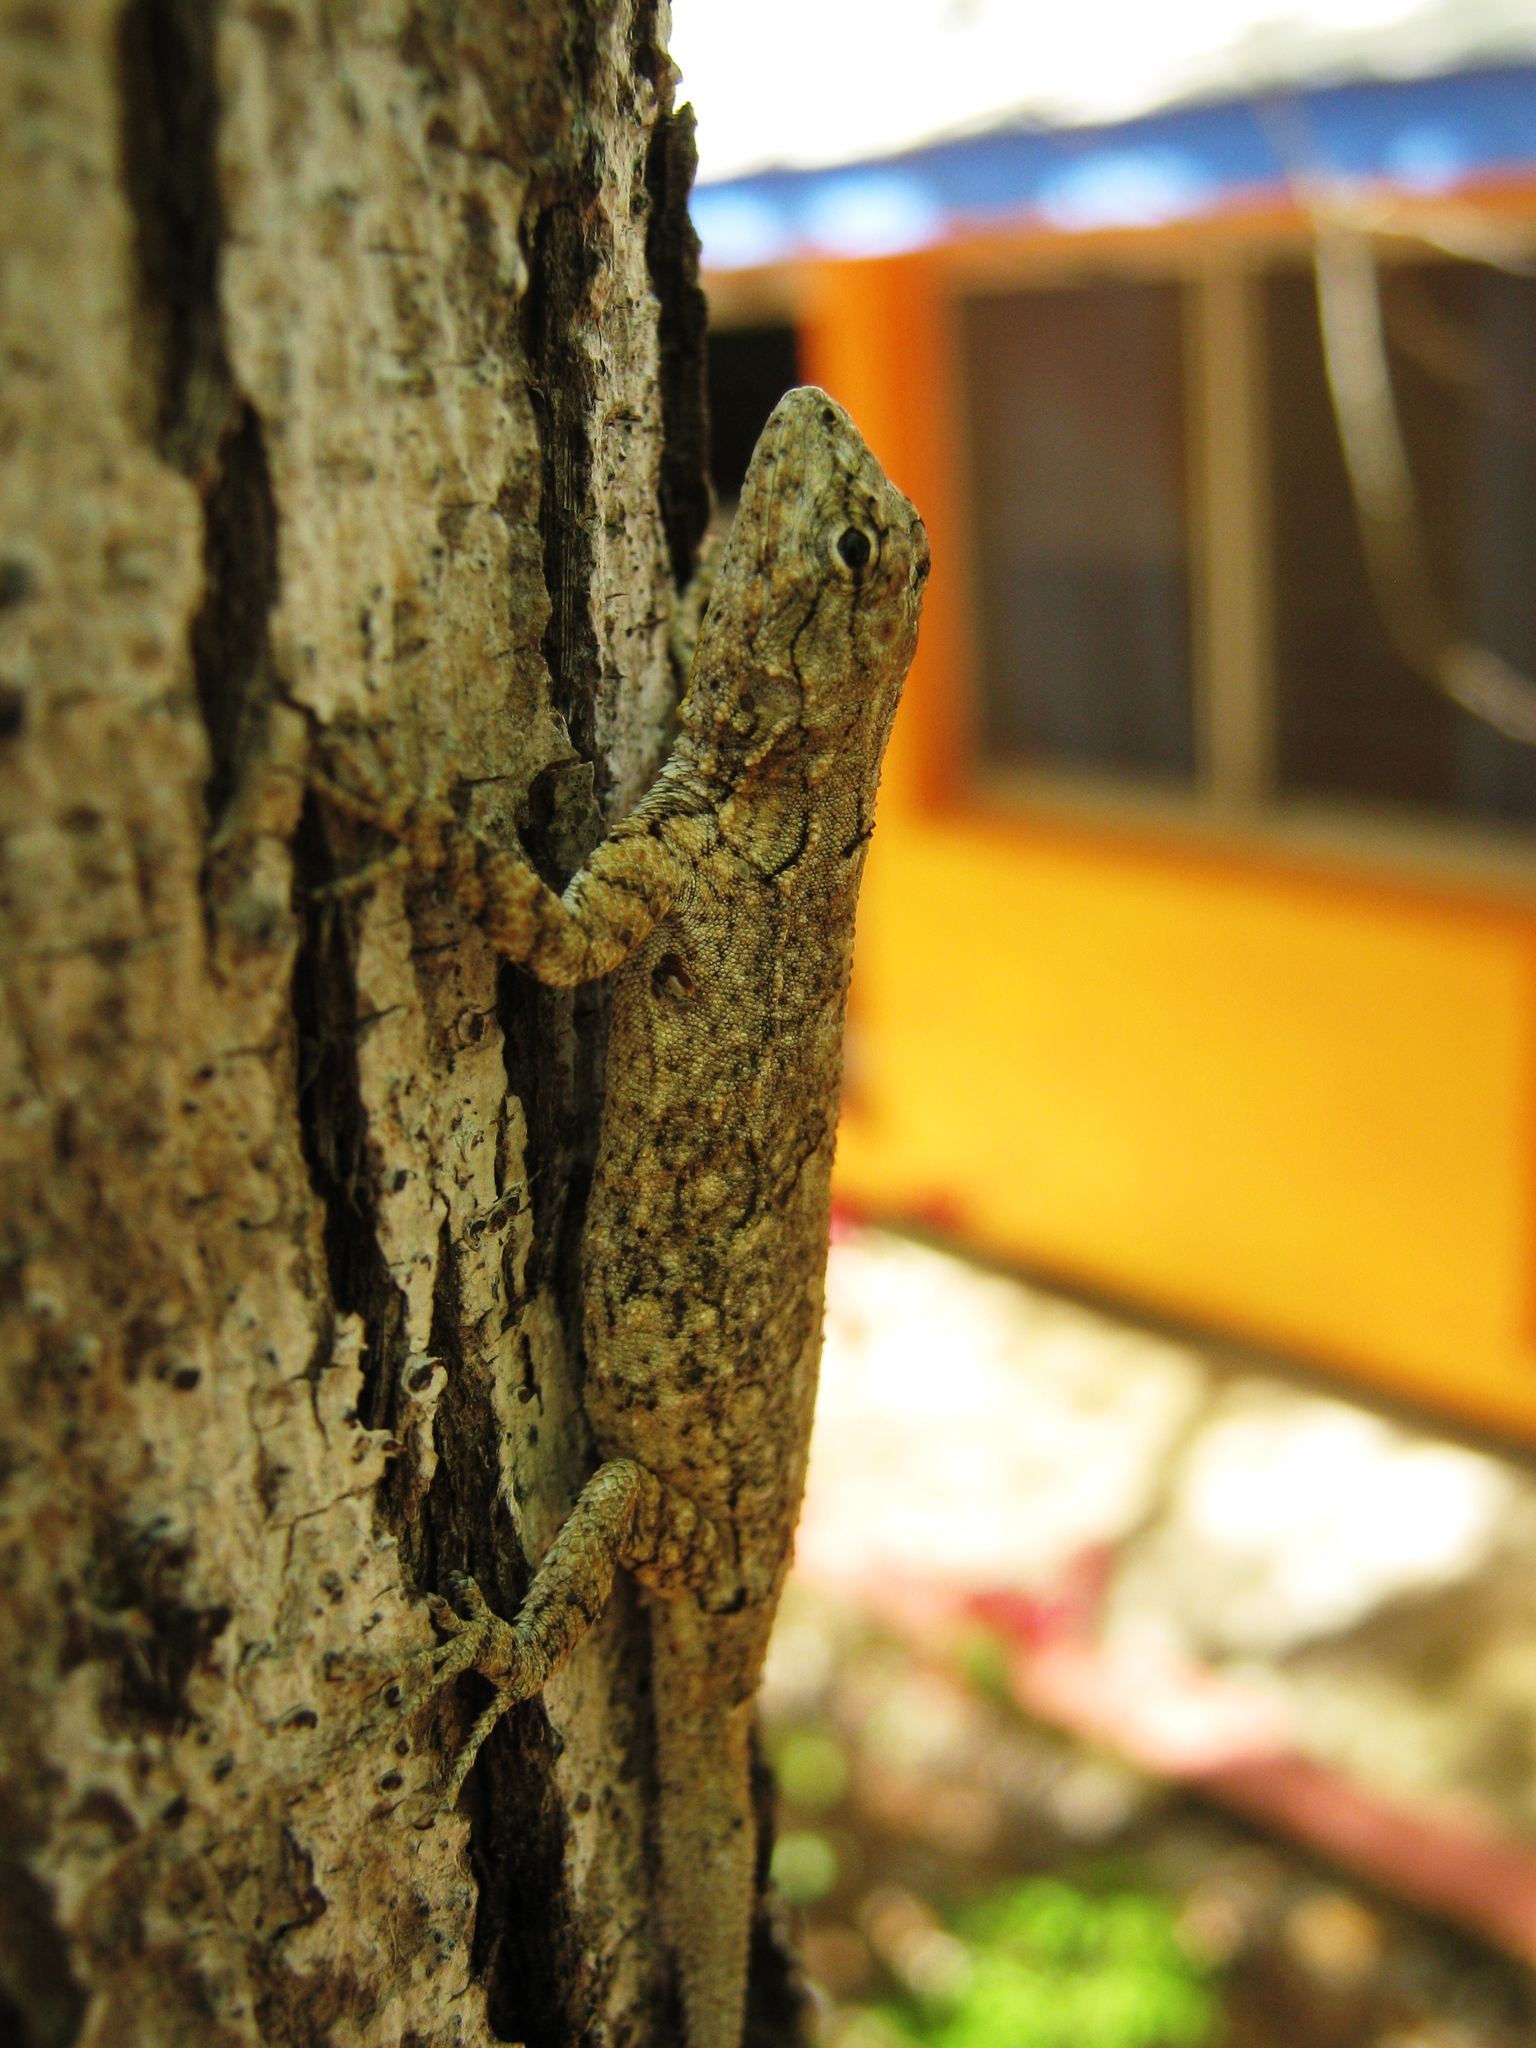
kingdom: Animalia
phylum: Chordata
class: Squamata
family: Phrynosomatidae
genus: Urosaurus
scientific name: Urosaurus bicarinatus
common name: Tropical tree lizard
